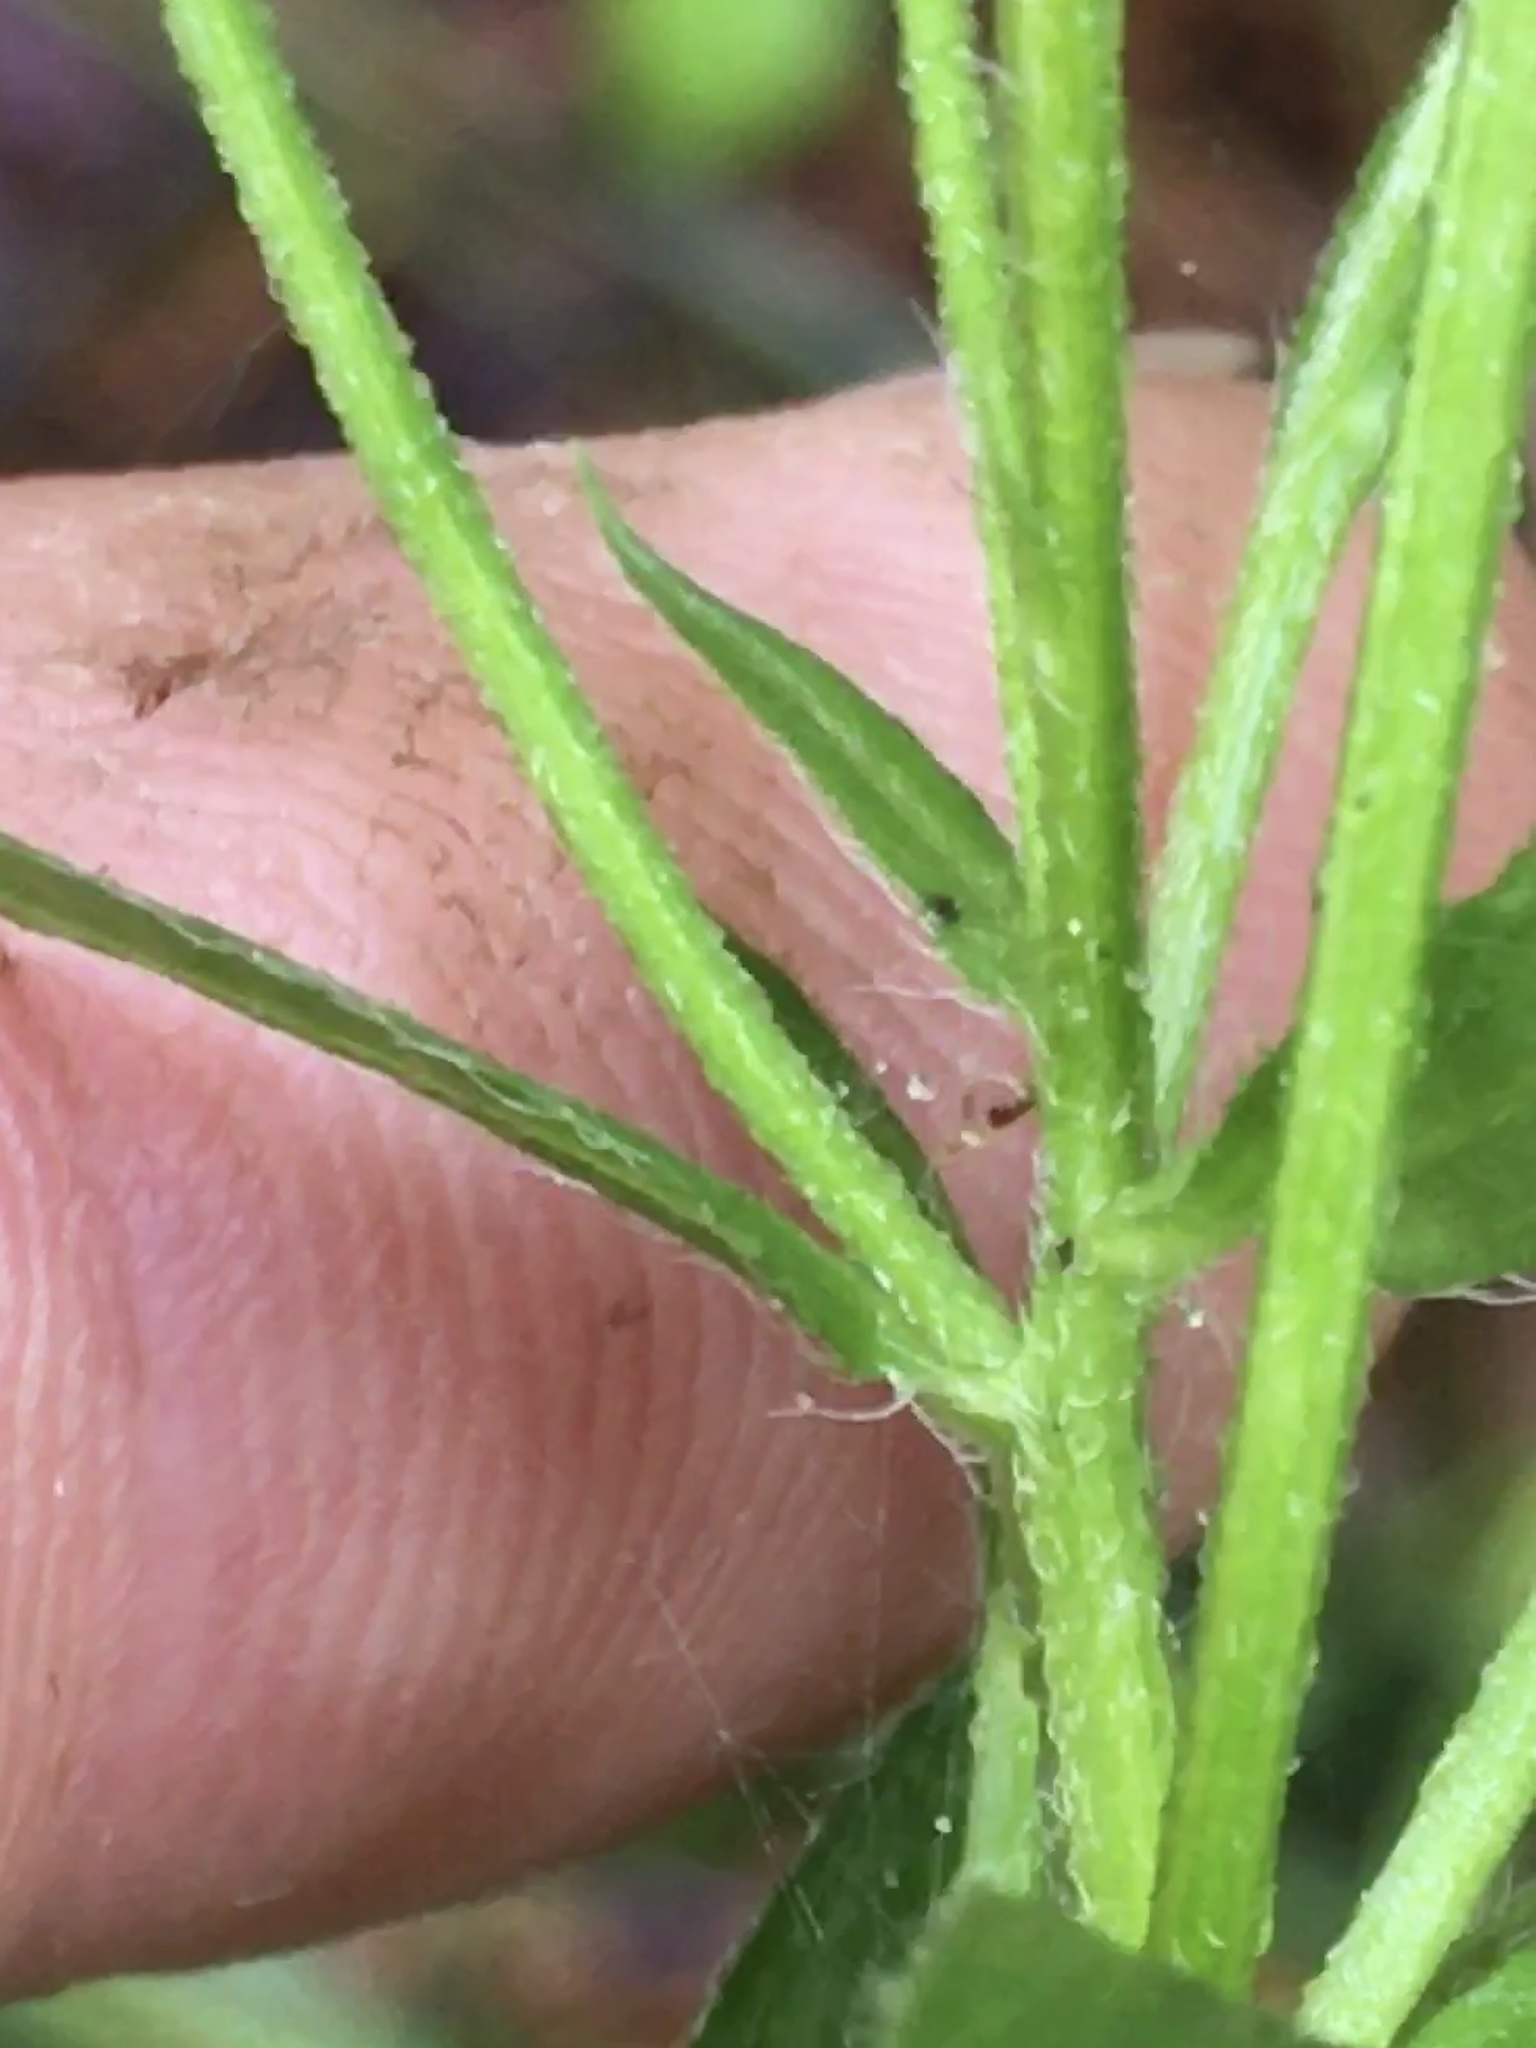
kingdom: Plantae
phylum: Tracheophyta
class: Magnoliopsida
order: Asterales
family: Asteraceae
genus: Erigeron
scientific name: Erigeron annuus
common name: Tall fleabane
